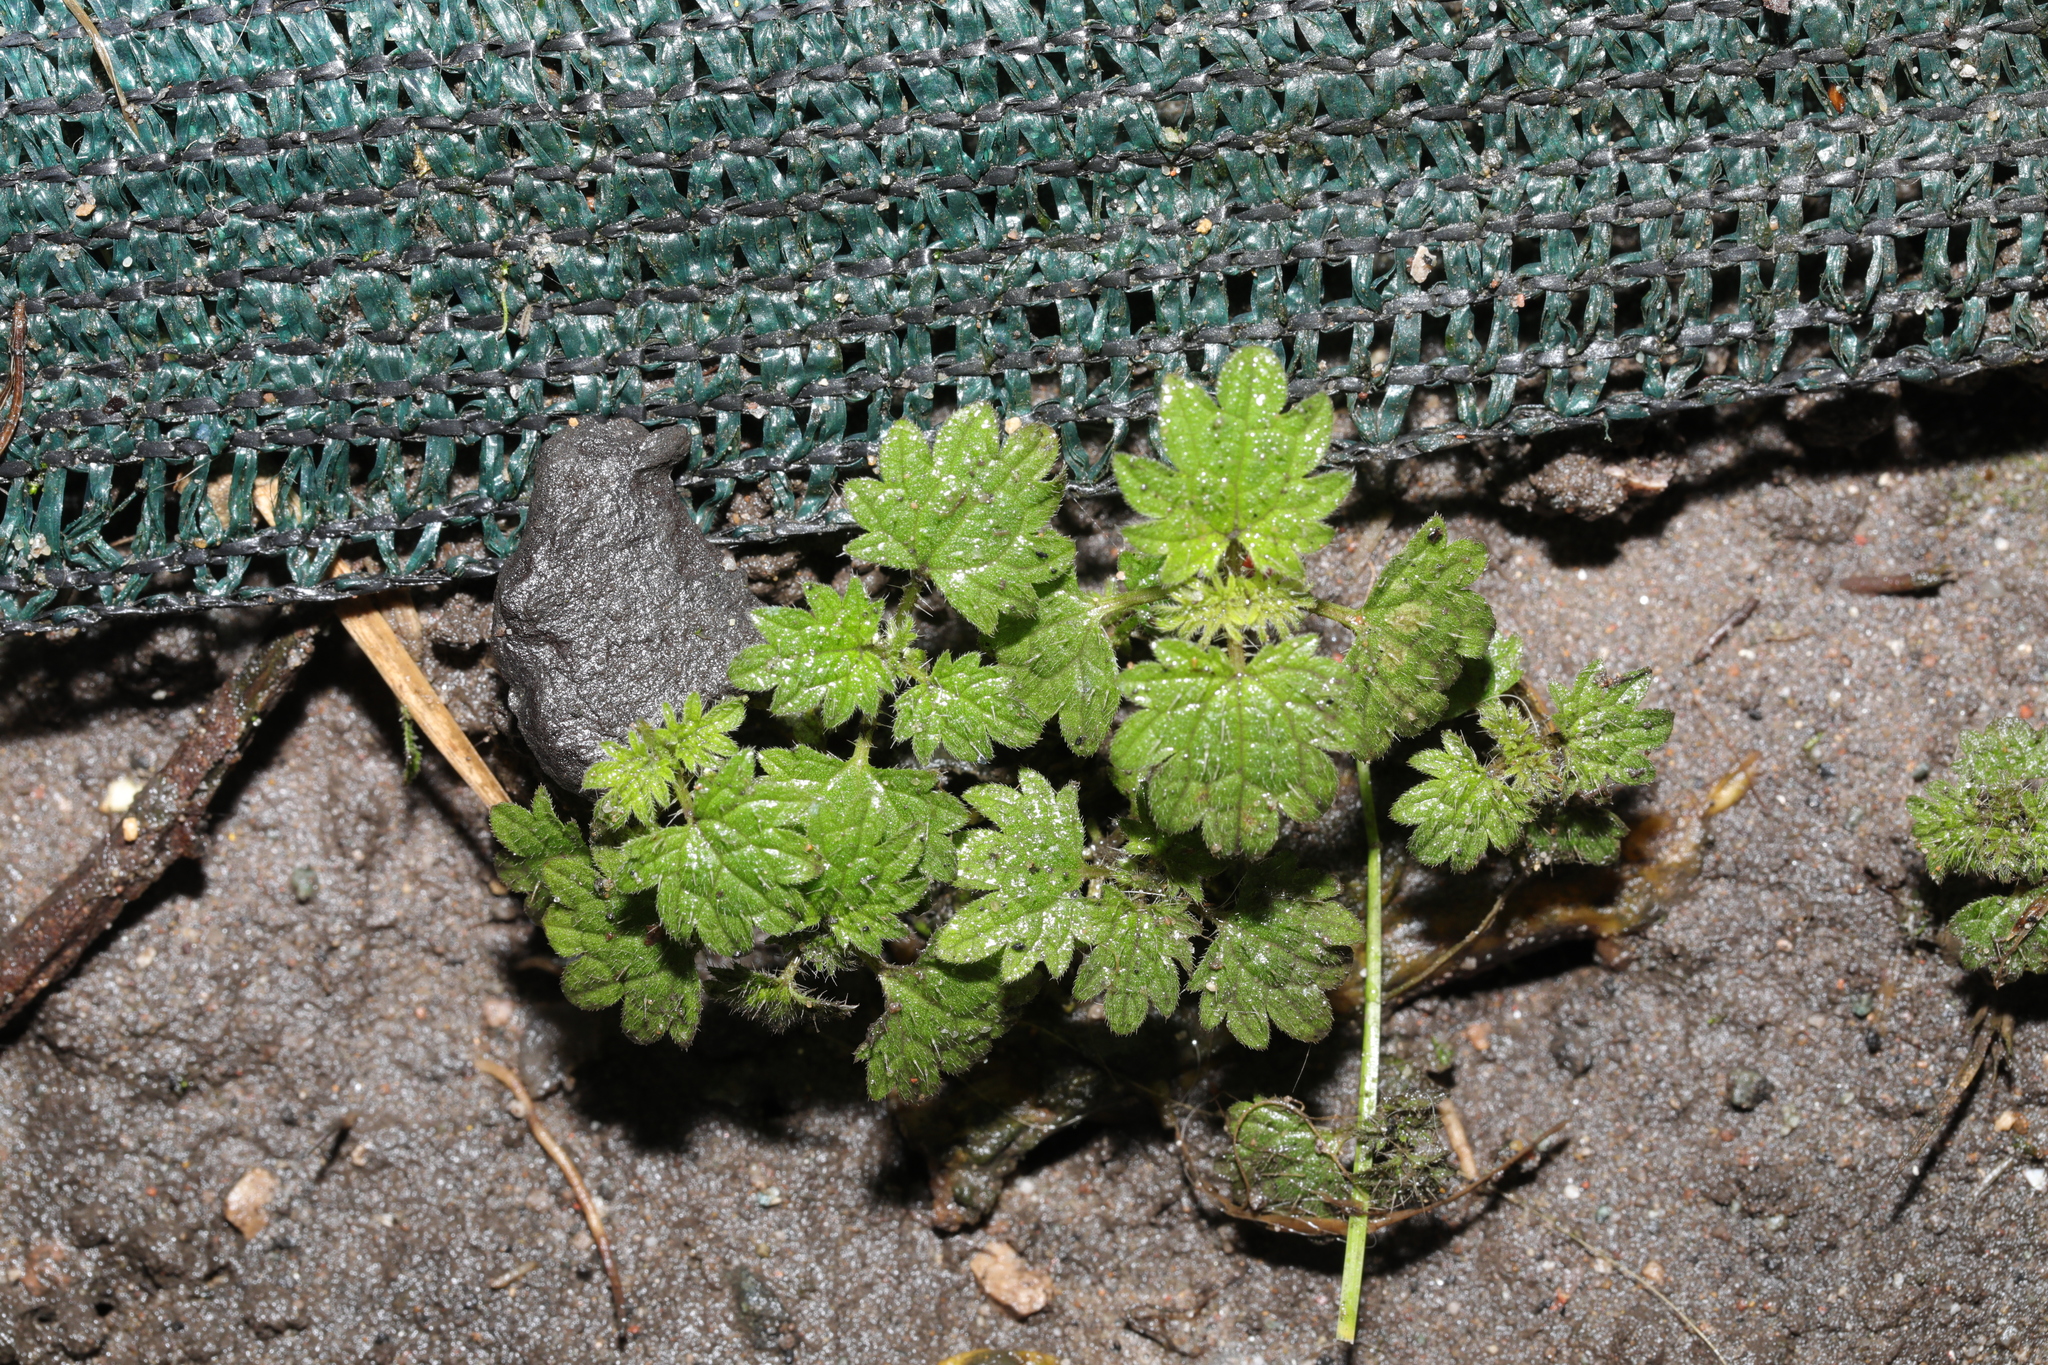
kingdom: Plantae
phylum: Tracheophyta
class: Magnoliopsida
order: Rosales
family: Urticaceae
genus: Urtica
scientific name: Urtica dioica
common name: Common nettle
